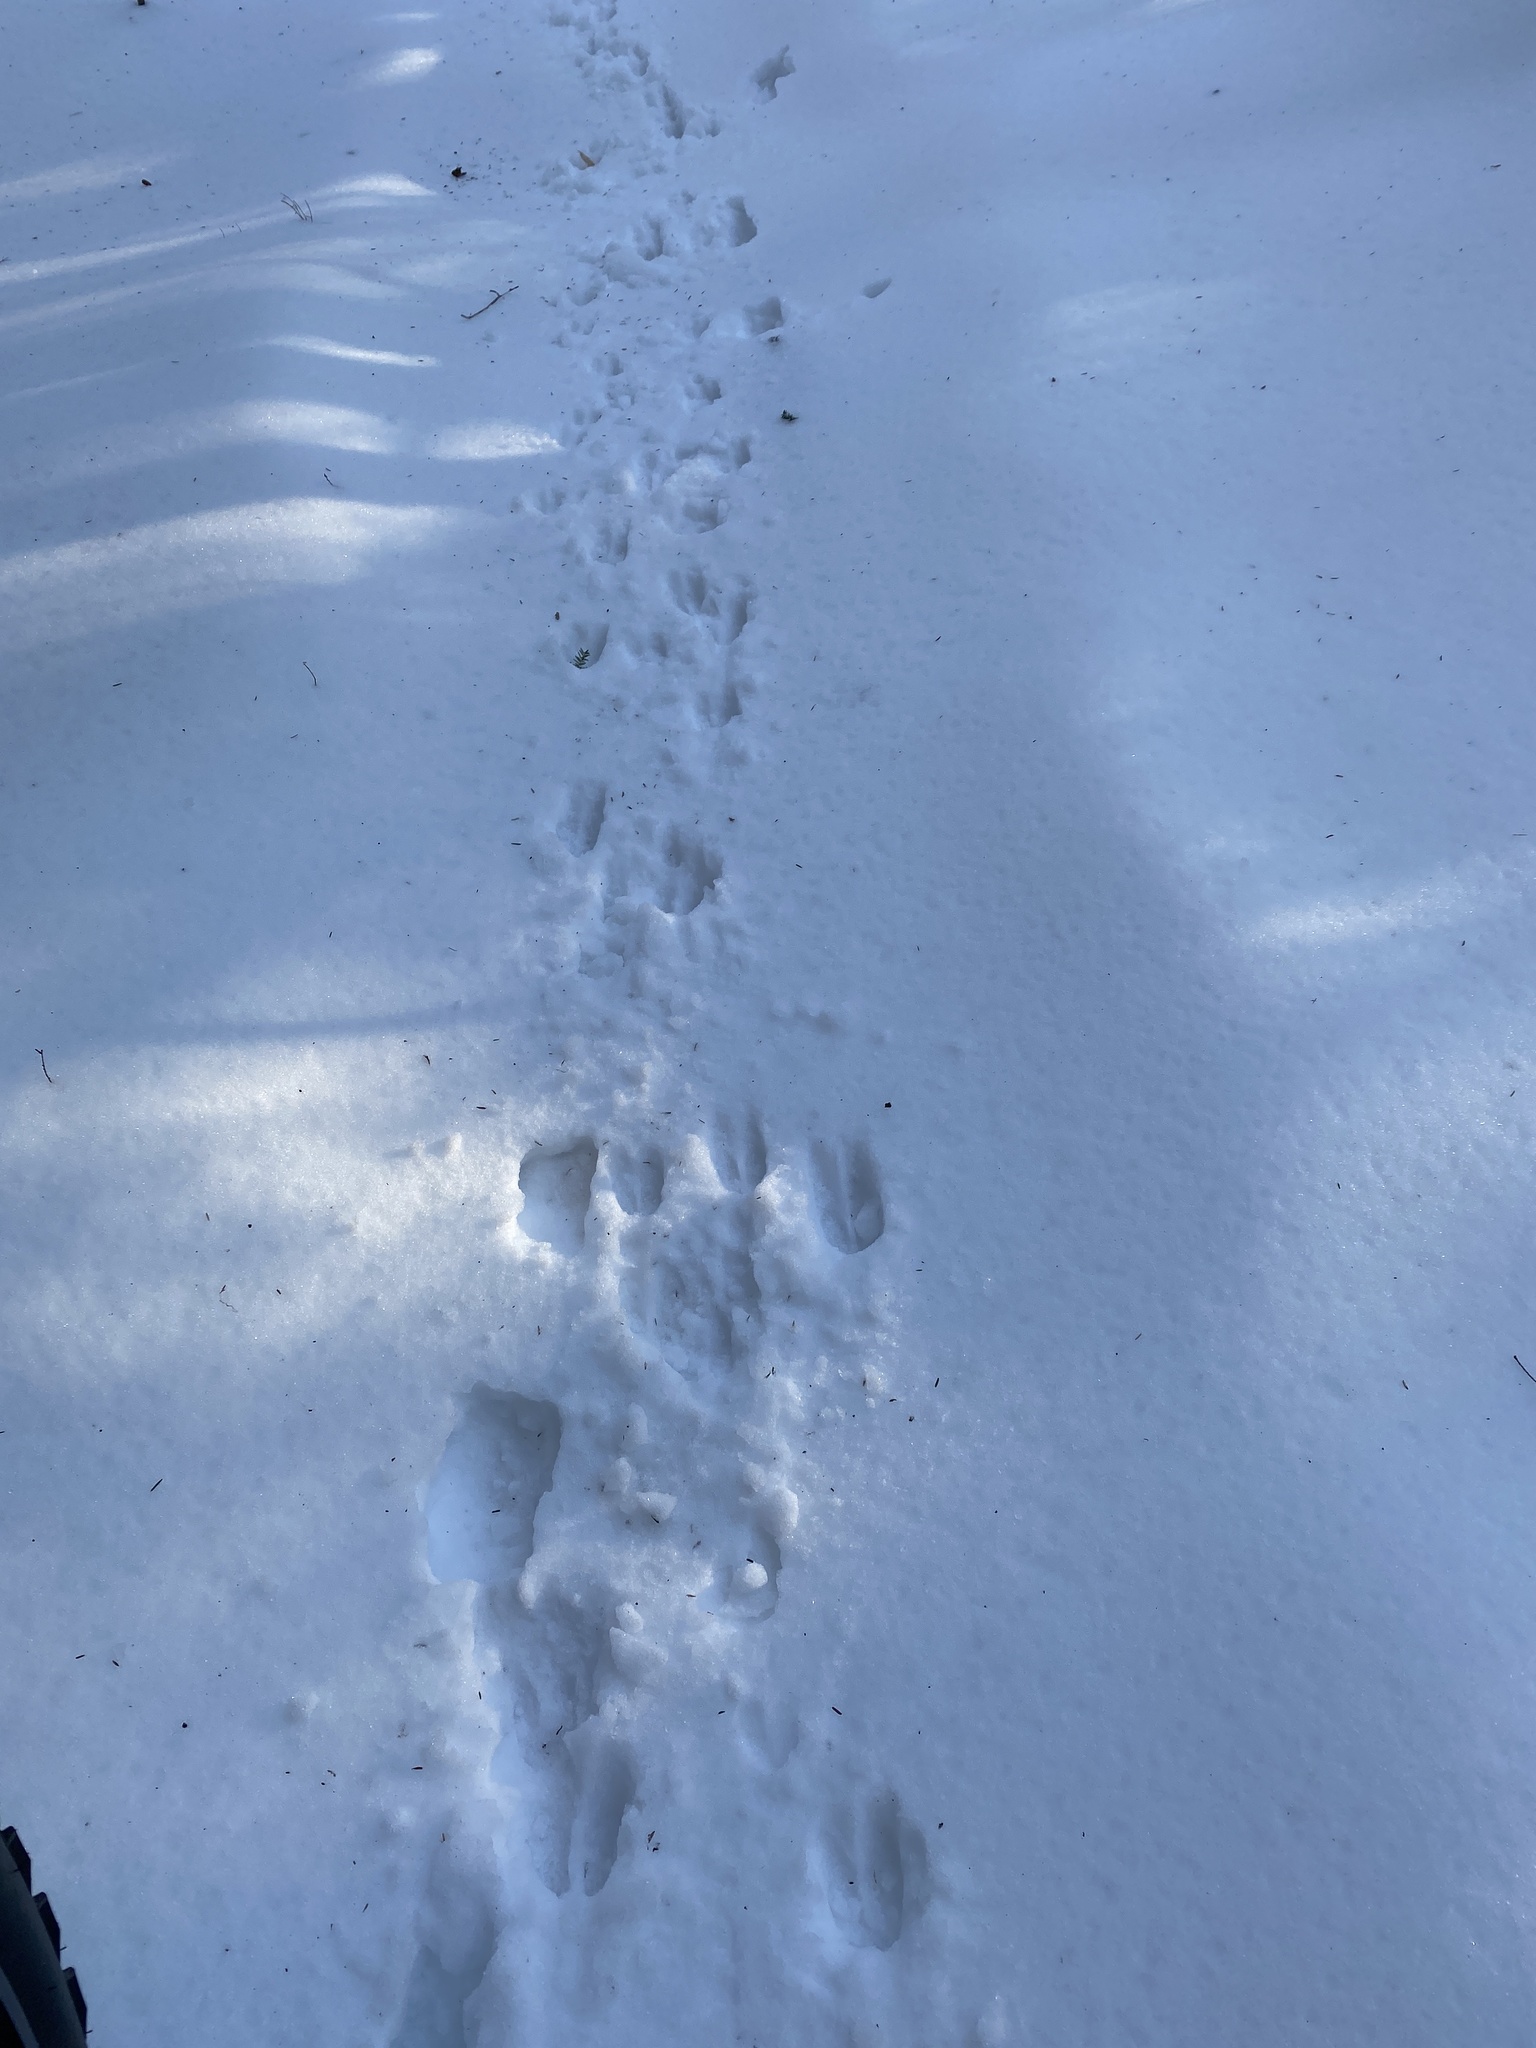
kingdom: Animalia
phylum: Chordata
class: Mammalia
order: Artiodactyla
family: Cervidae
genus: Odocoileus
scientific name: Odocoileus virginianus
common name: White-tailed deer
